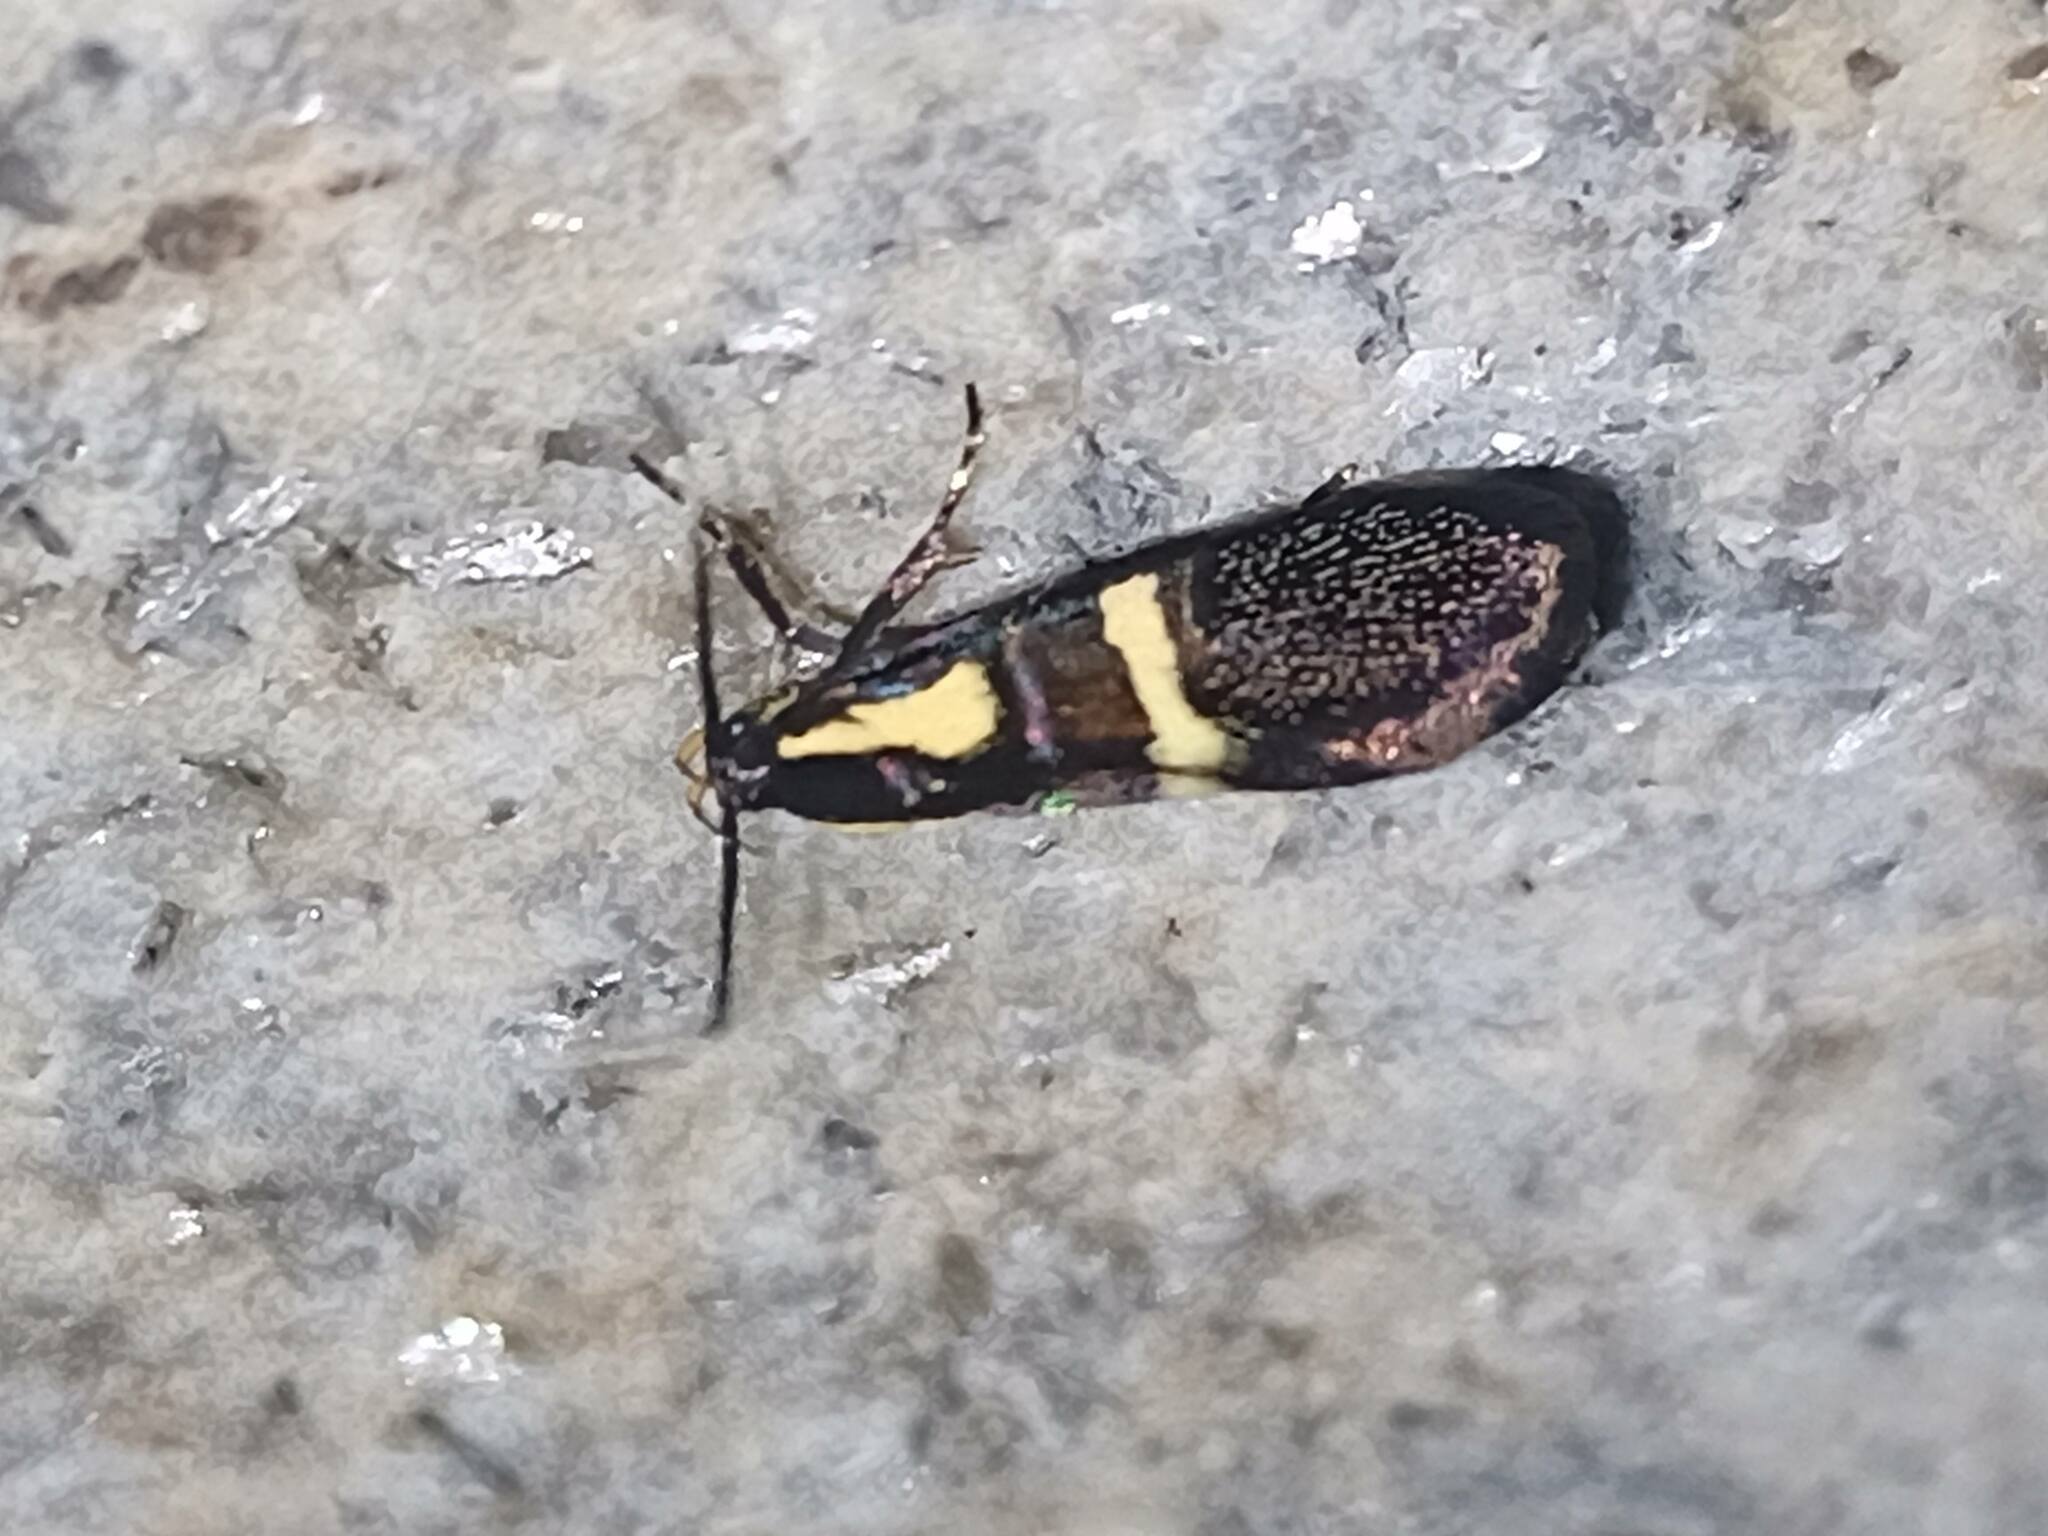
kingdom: Animalia
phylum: Arthropoda
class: Insecta
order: Lepidoptera
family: Oecophoridae
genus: Dafa
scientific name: Dafa oliviella
